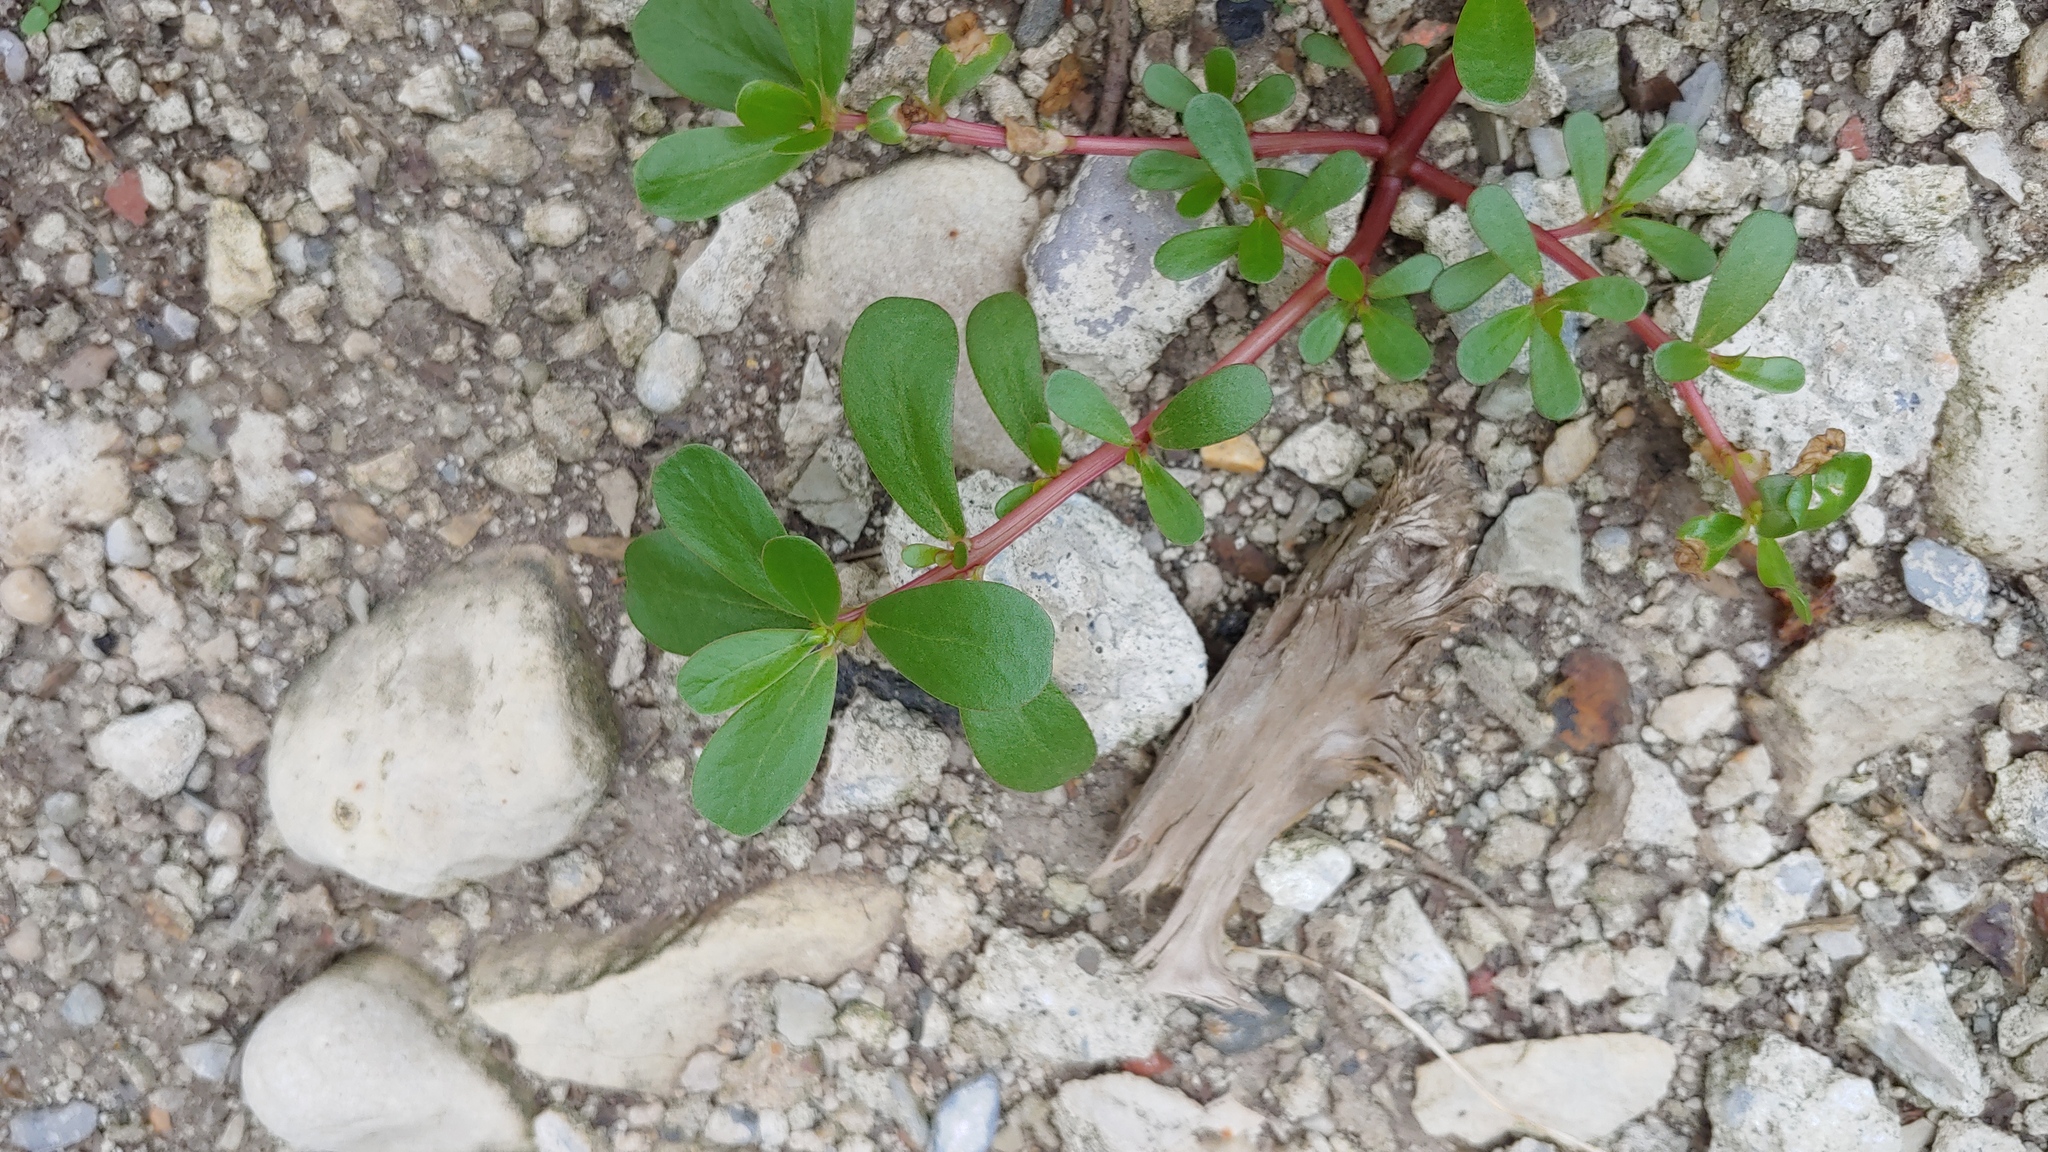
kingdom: Plantae
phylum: Tracheophyta
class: Magnoliopsida
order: Caryophyllales
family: Portulacaceae
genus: Portulaca
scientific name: Portulaca oleracea
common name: Common purslane
